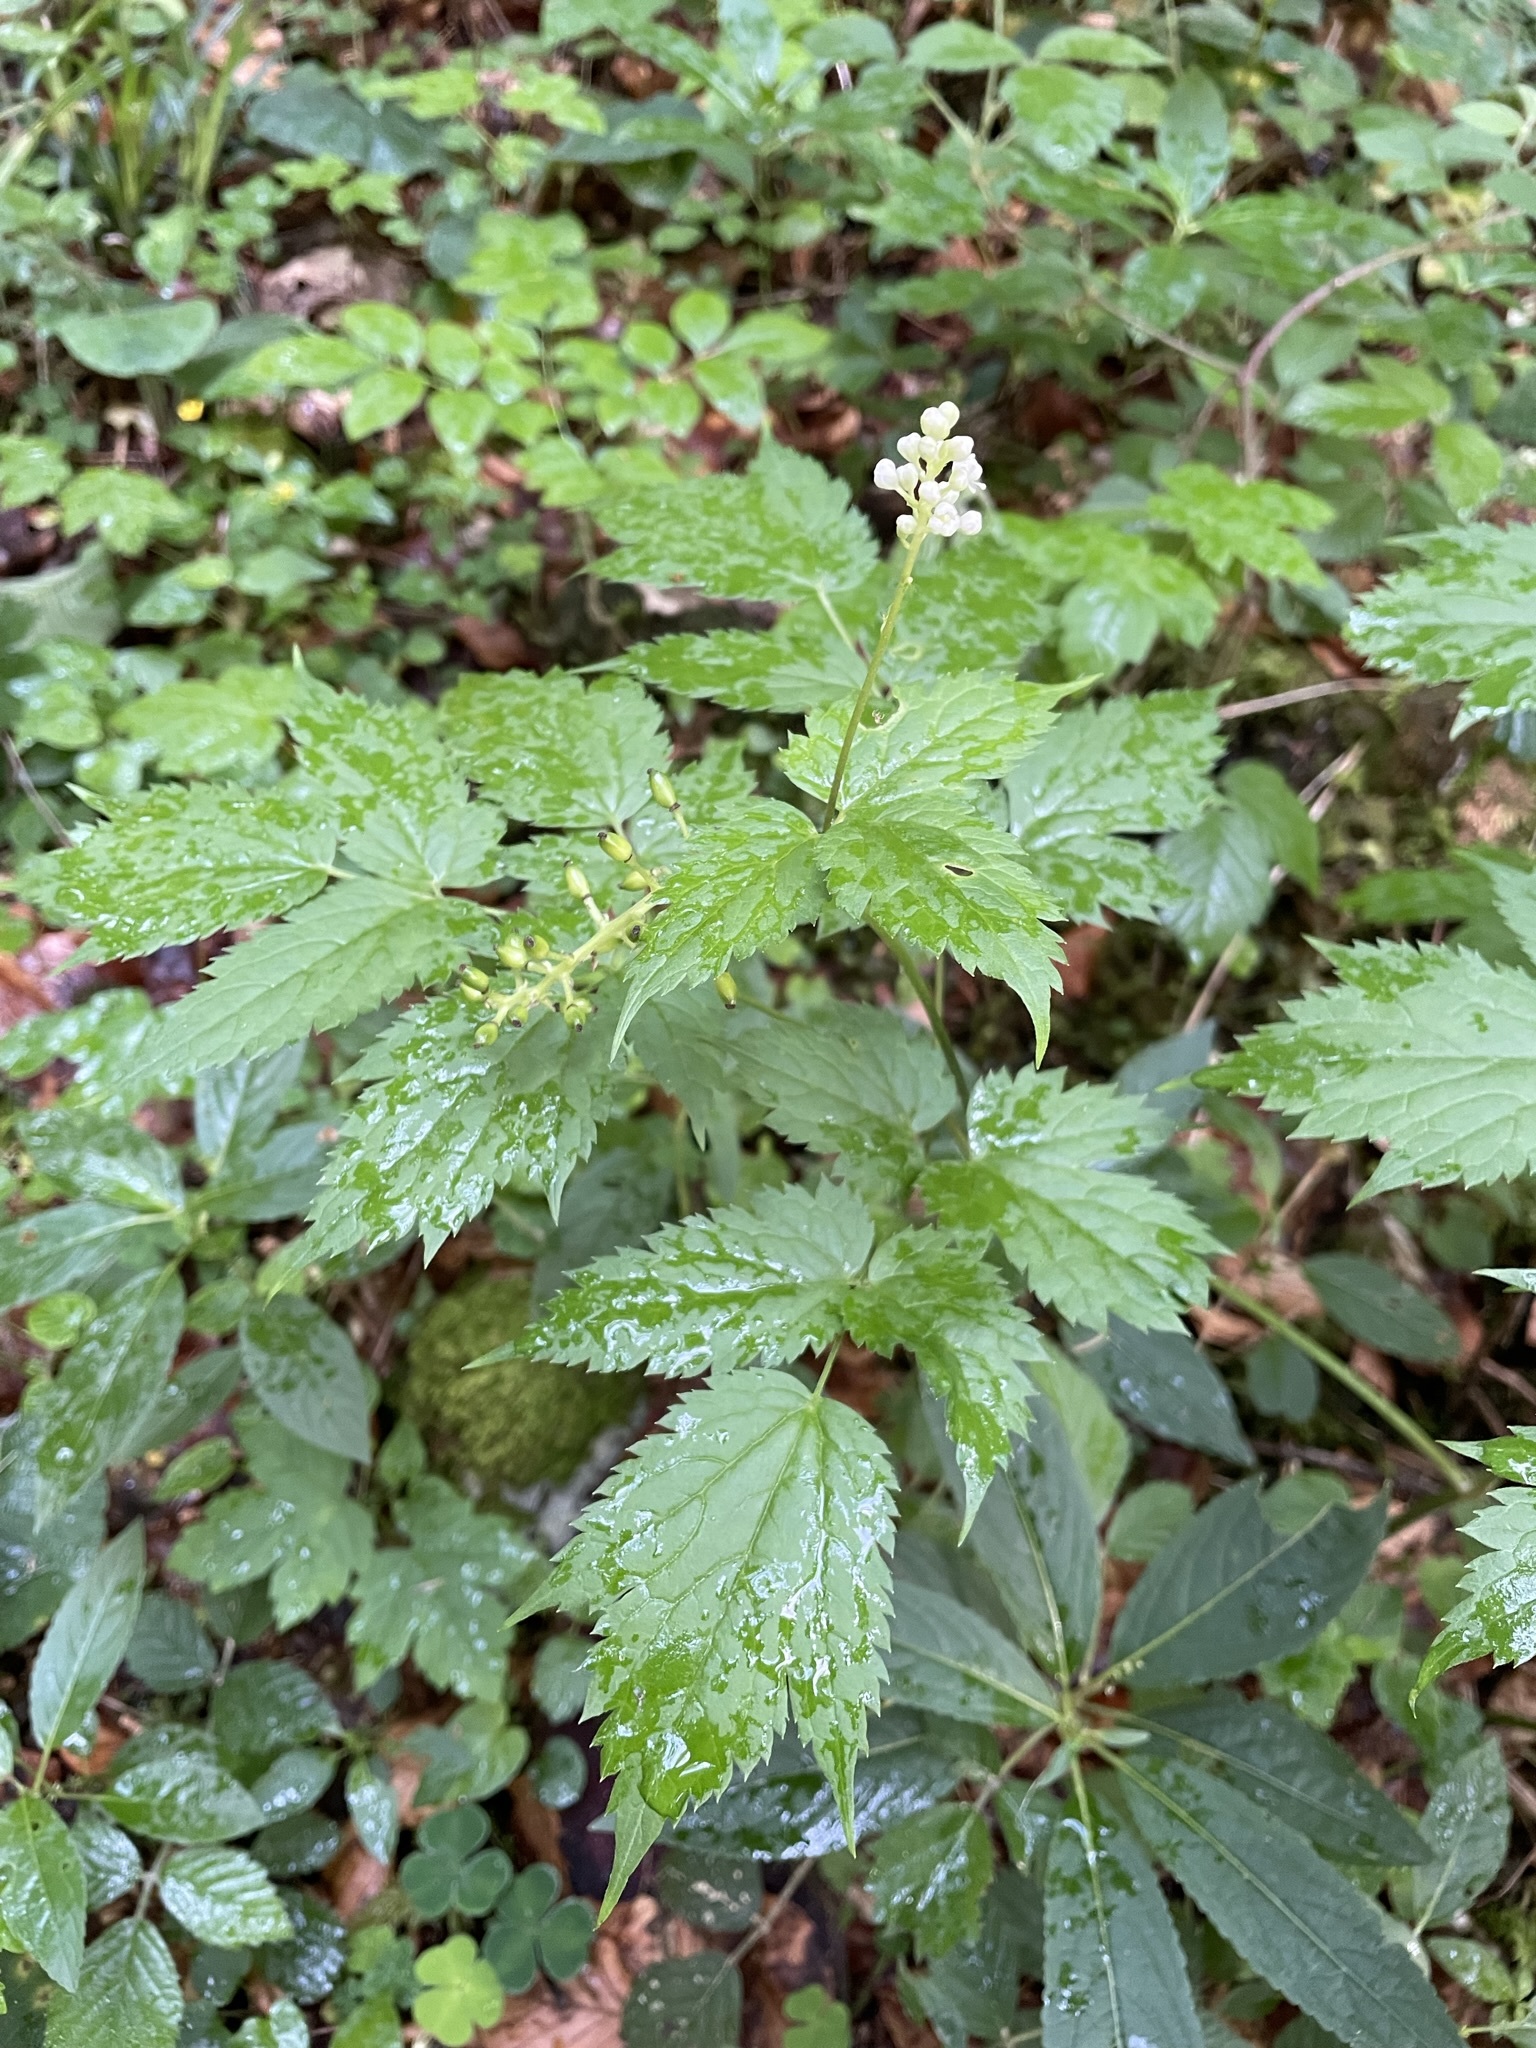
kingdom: Plantae
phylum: Tracheophyta
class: Magnoliopsida
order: Ranunculales
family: Ranunculaceae
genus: Actaea
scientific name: Actaea spicata
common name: Baneberry
